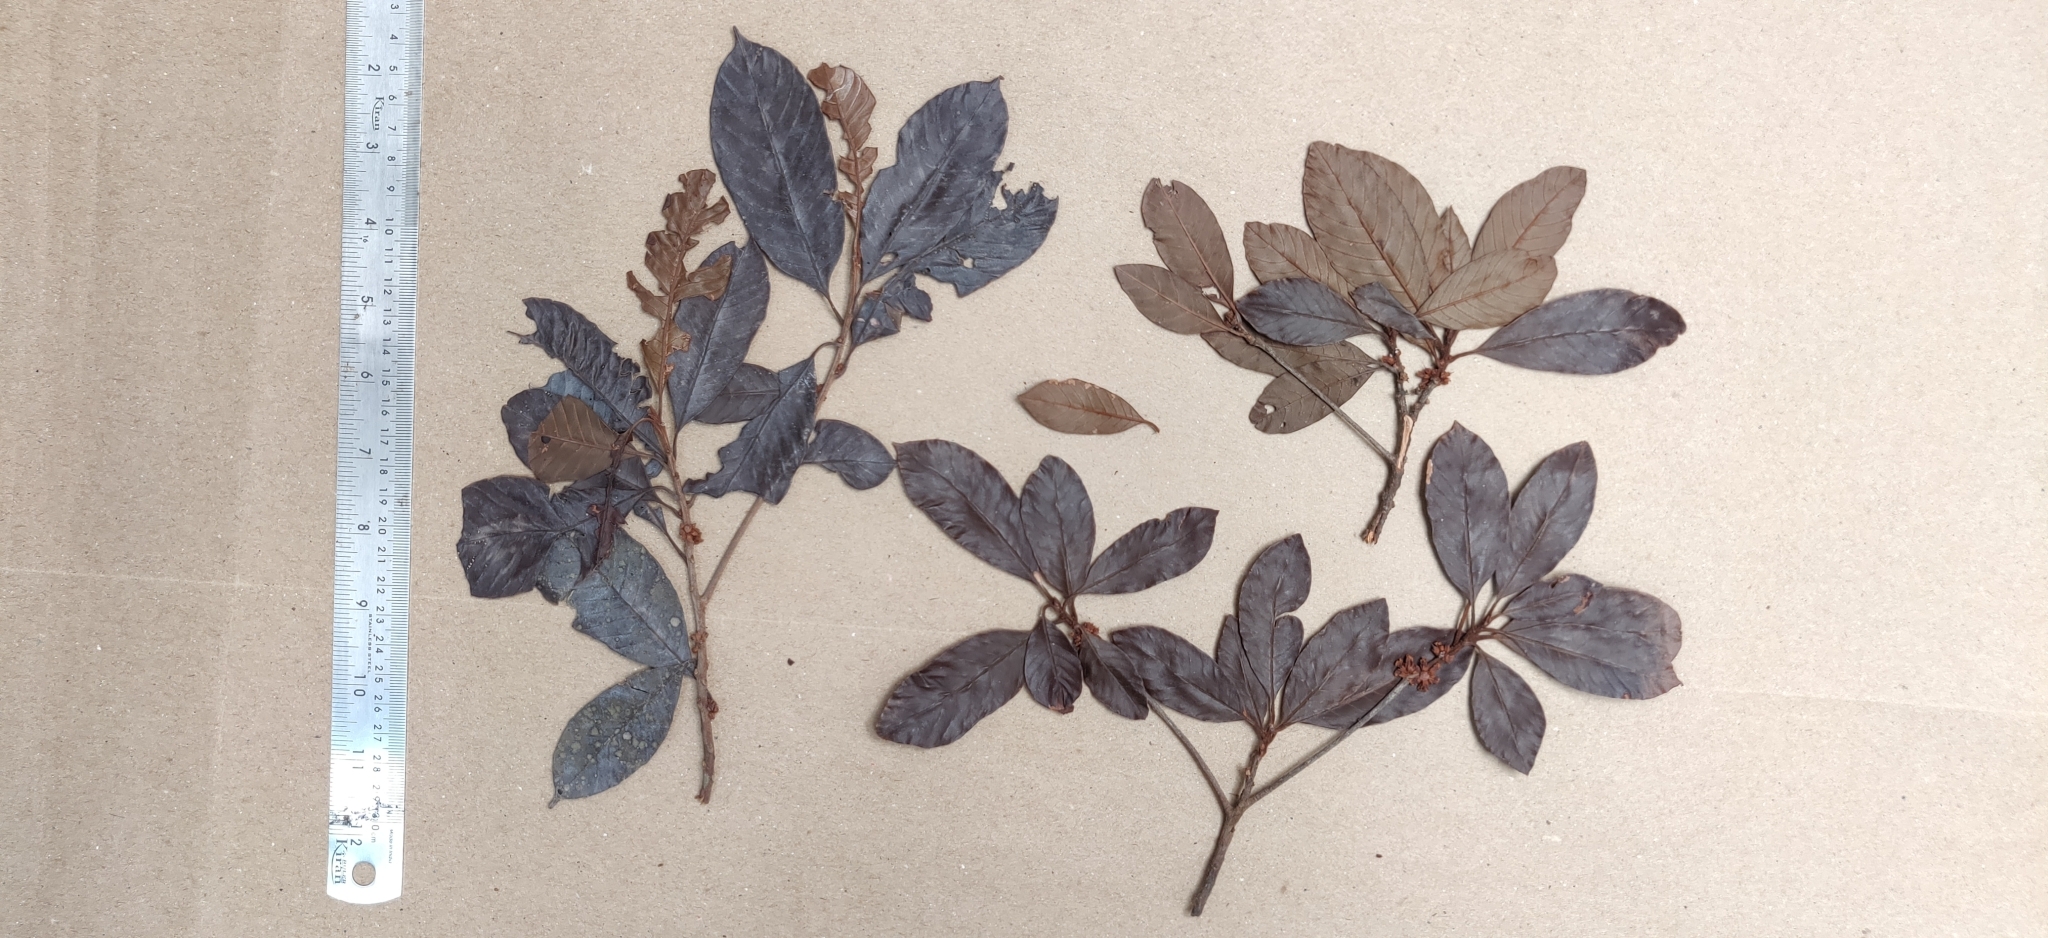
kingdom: Plantae
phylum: Tracheophyta
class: Magnoliopsida
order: Ericales
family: Sapotaceae
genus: Isonandra
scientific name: Isonandra perrottetiana
